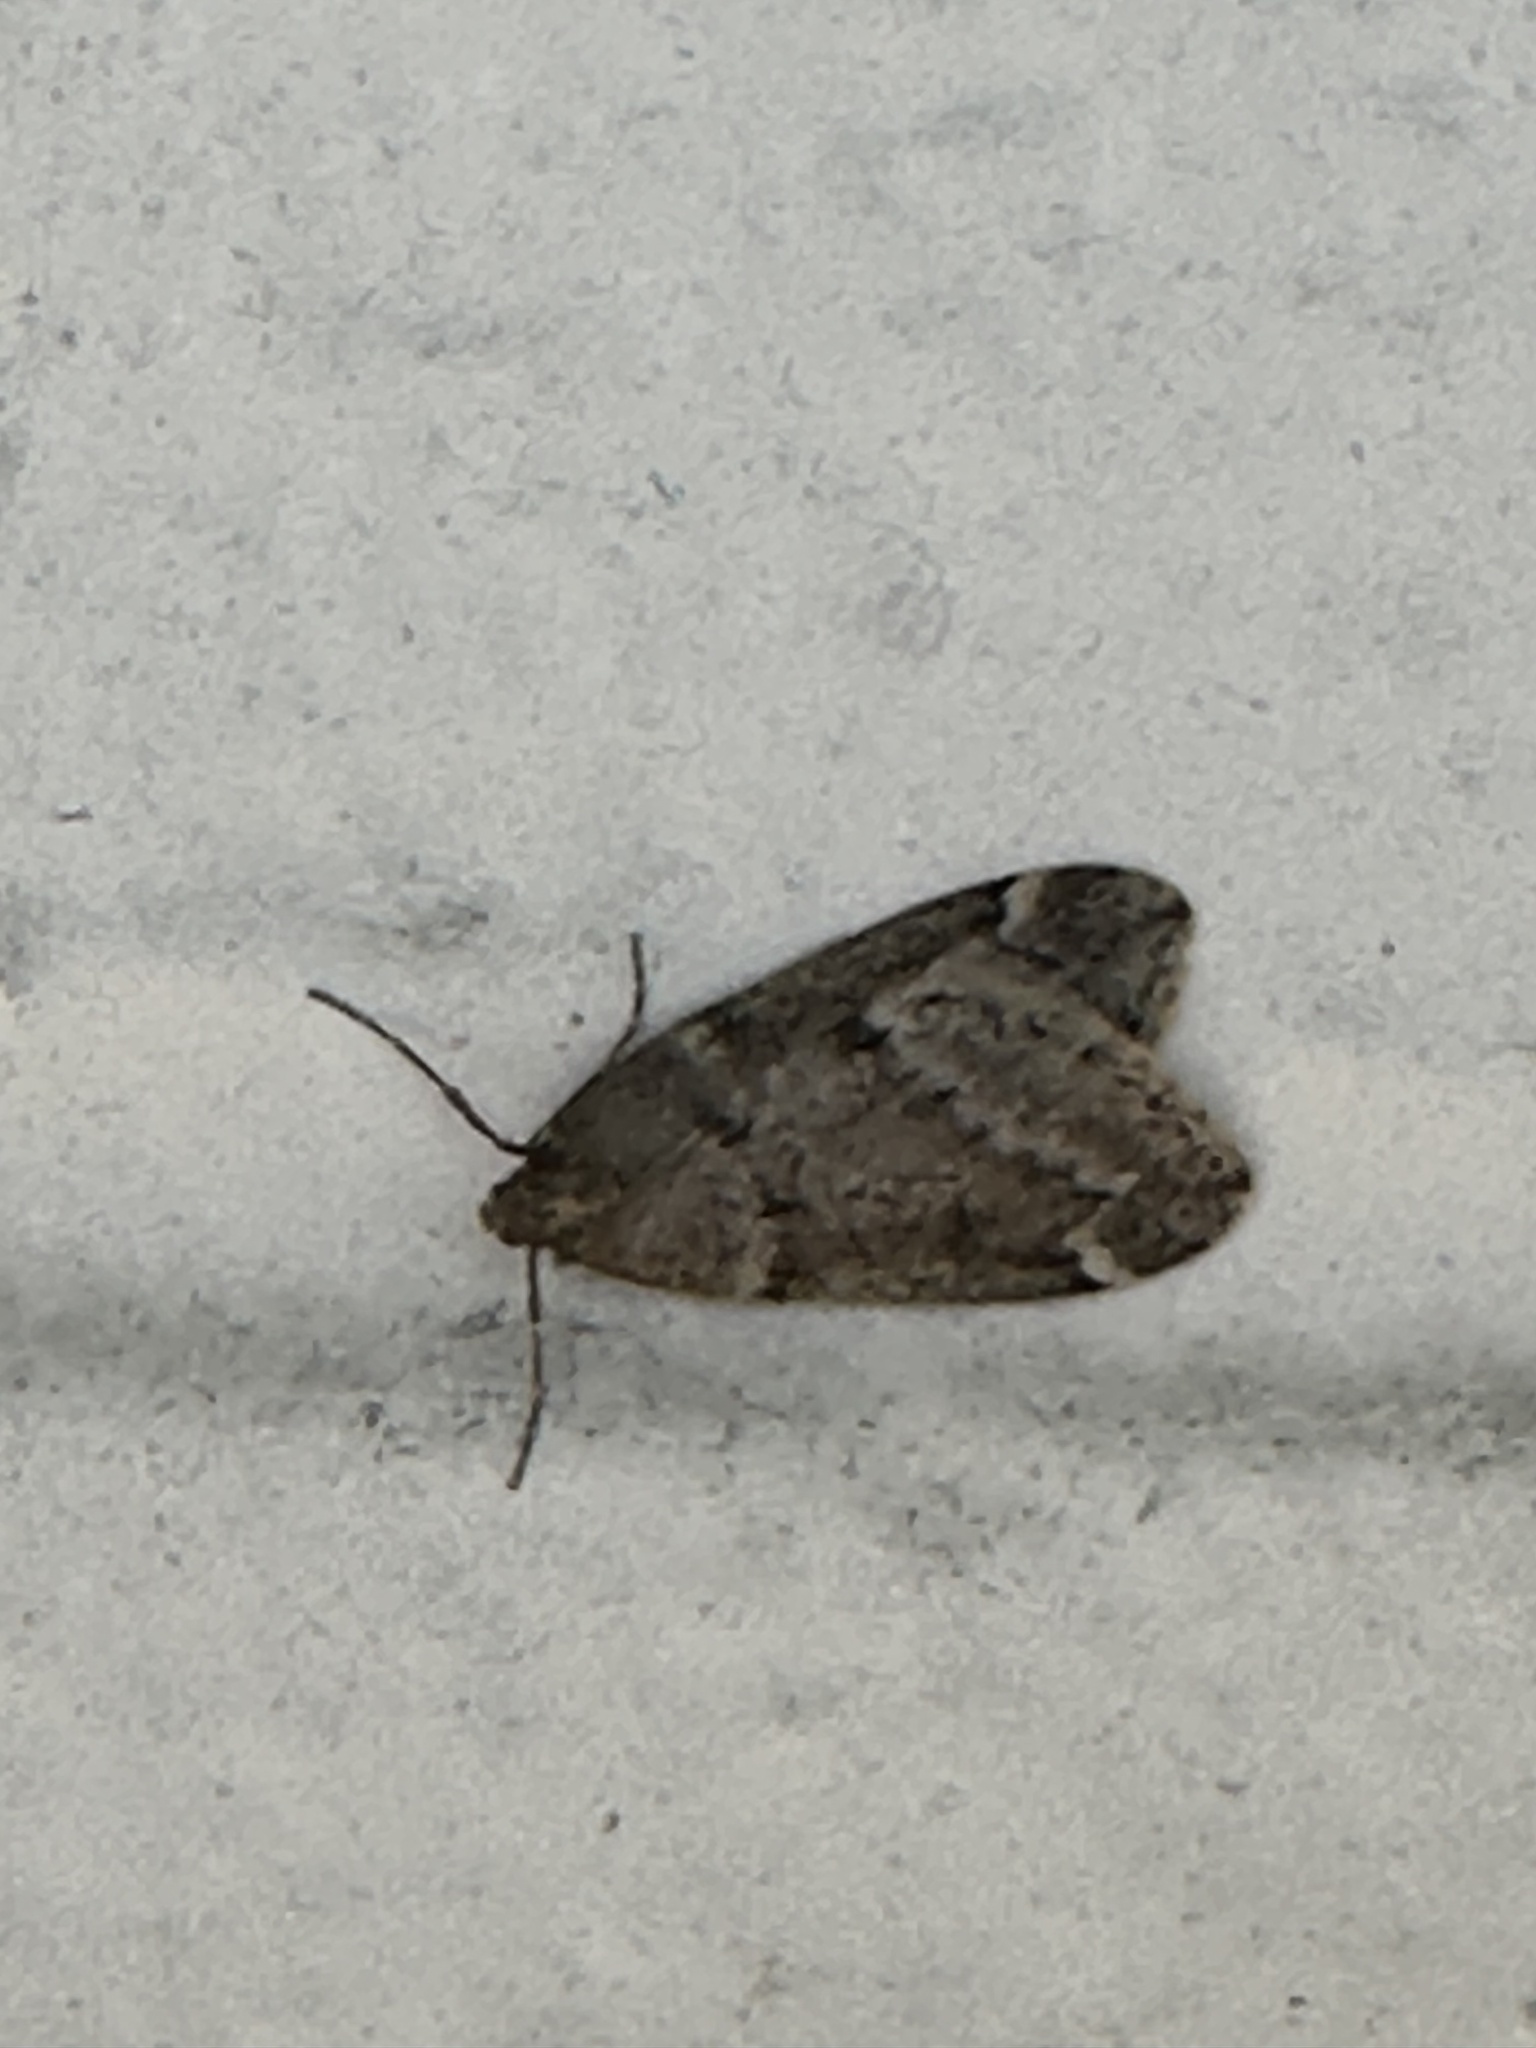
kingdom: Animalia
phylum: Arthropoda
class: Insecta
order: Lepidoptera
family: Geometridae
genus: Alsophila
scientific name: Alsophila pometaria
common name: Fall cankerworm
